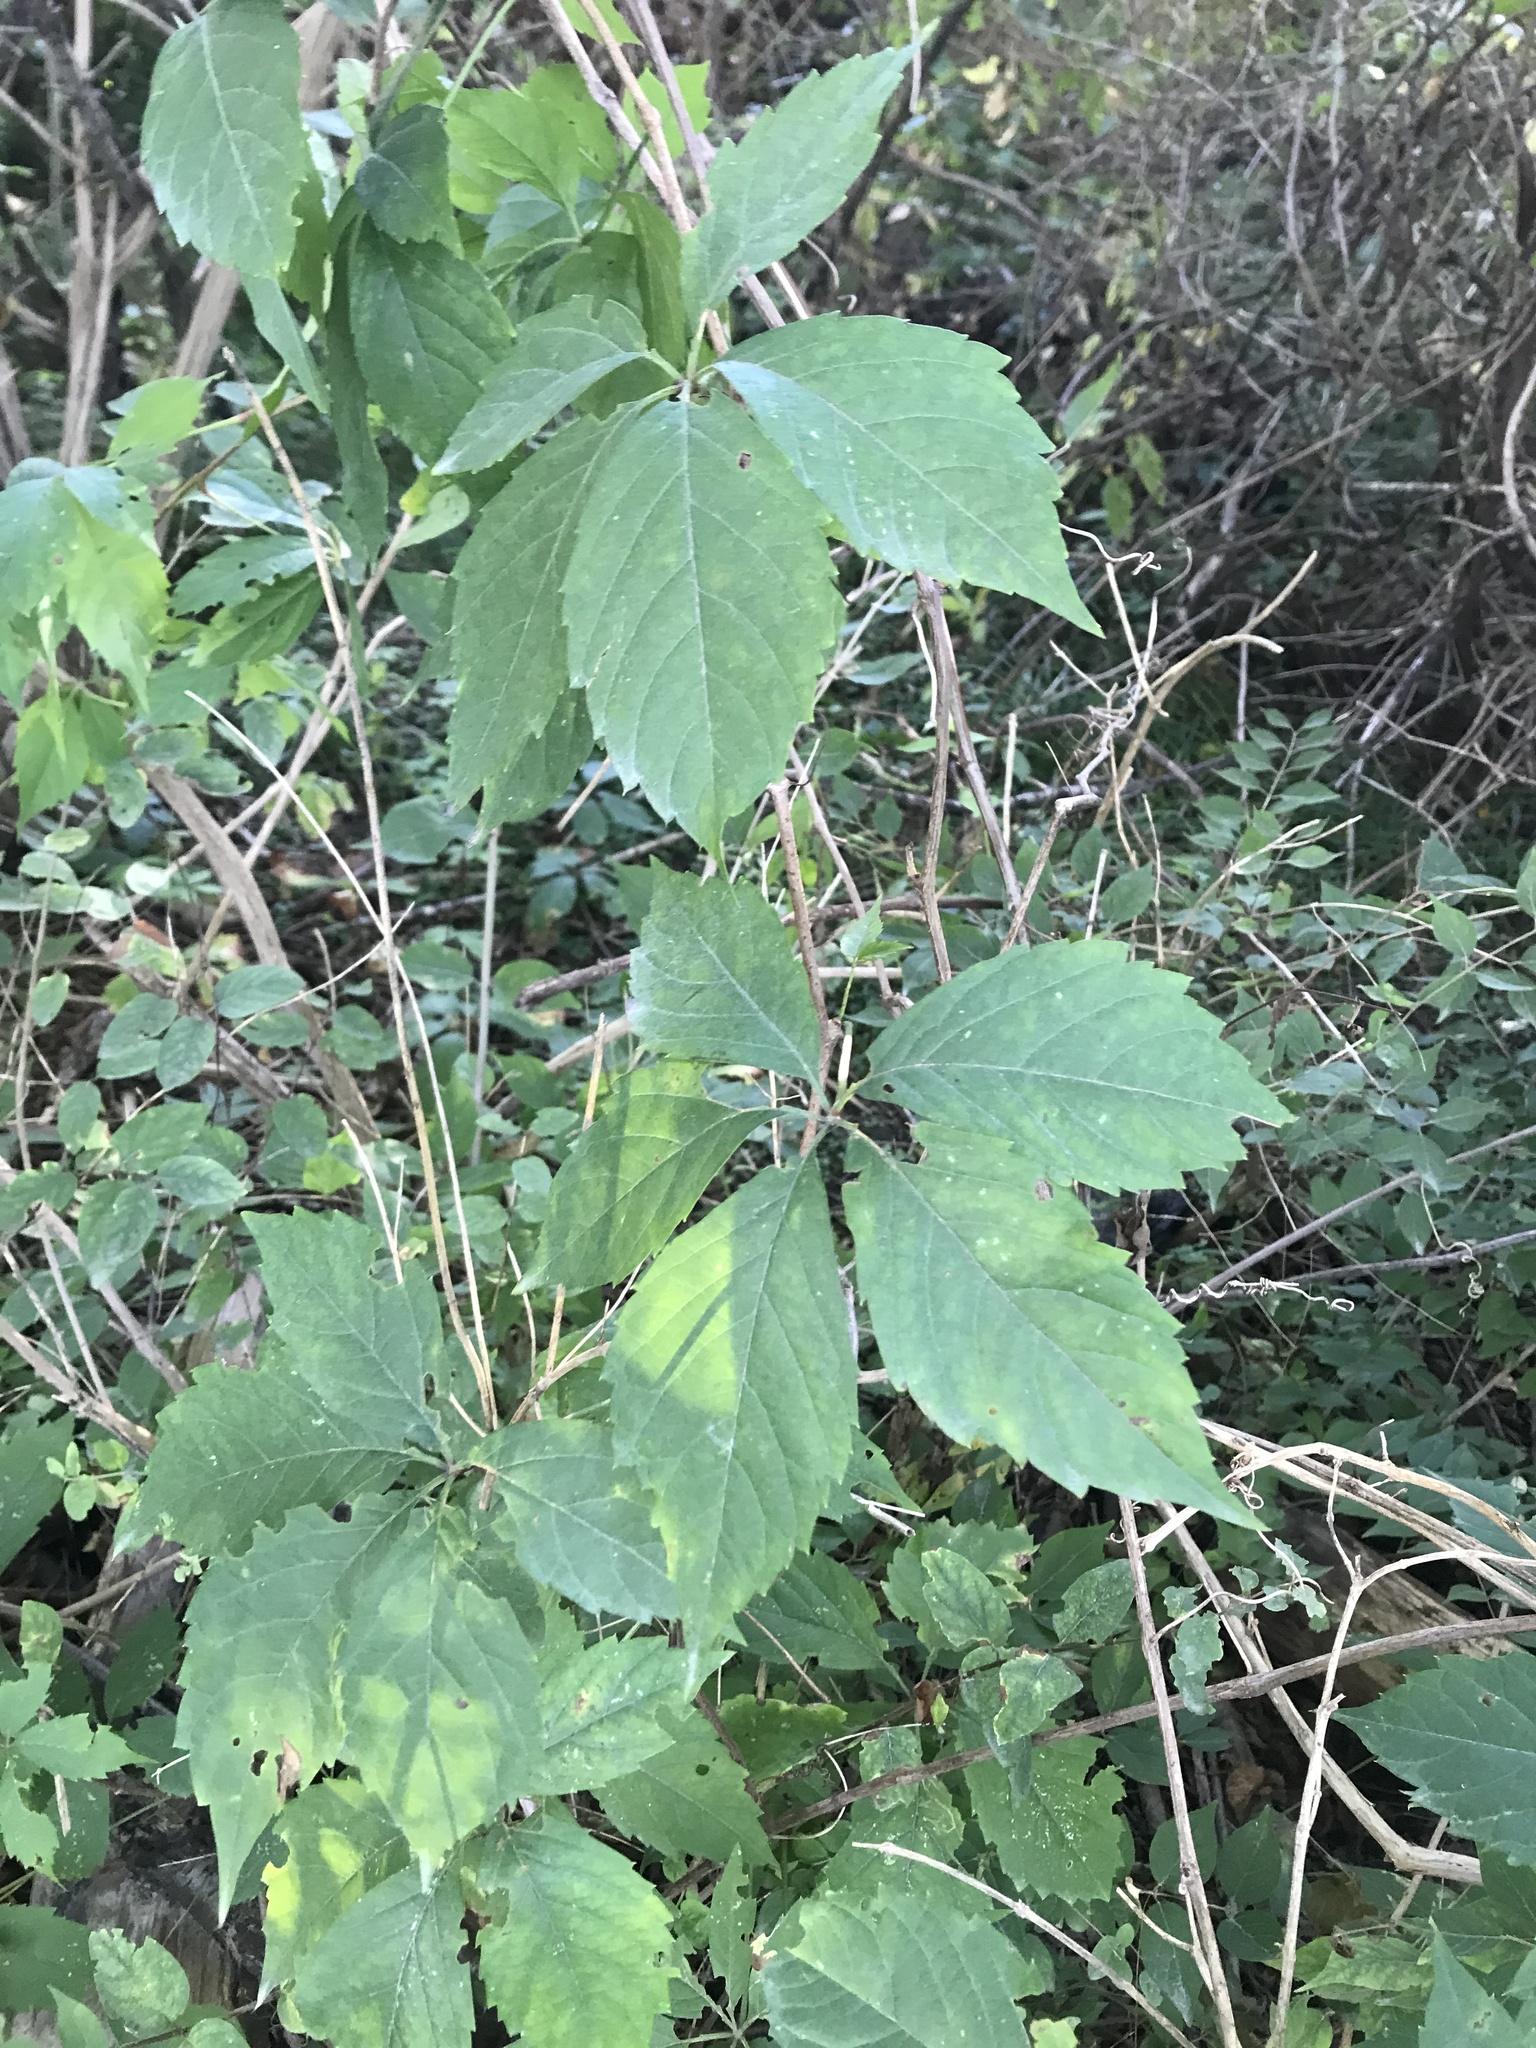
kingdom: Plantae
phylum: Tracheophyta
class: Magnoliopsida
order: Vitales
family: Vitaceae
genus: Parthenocissus
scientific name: Parthenocissus quinquefolia
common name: Virginia-creeper
